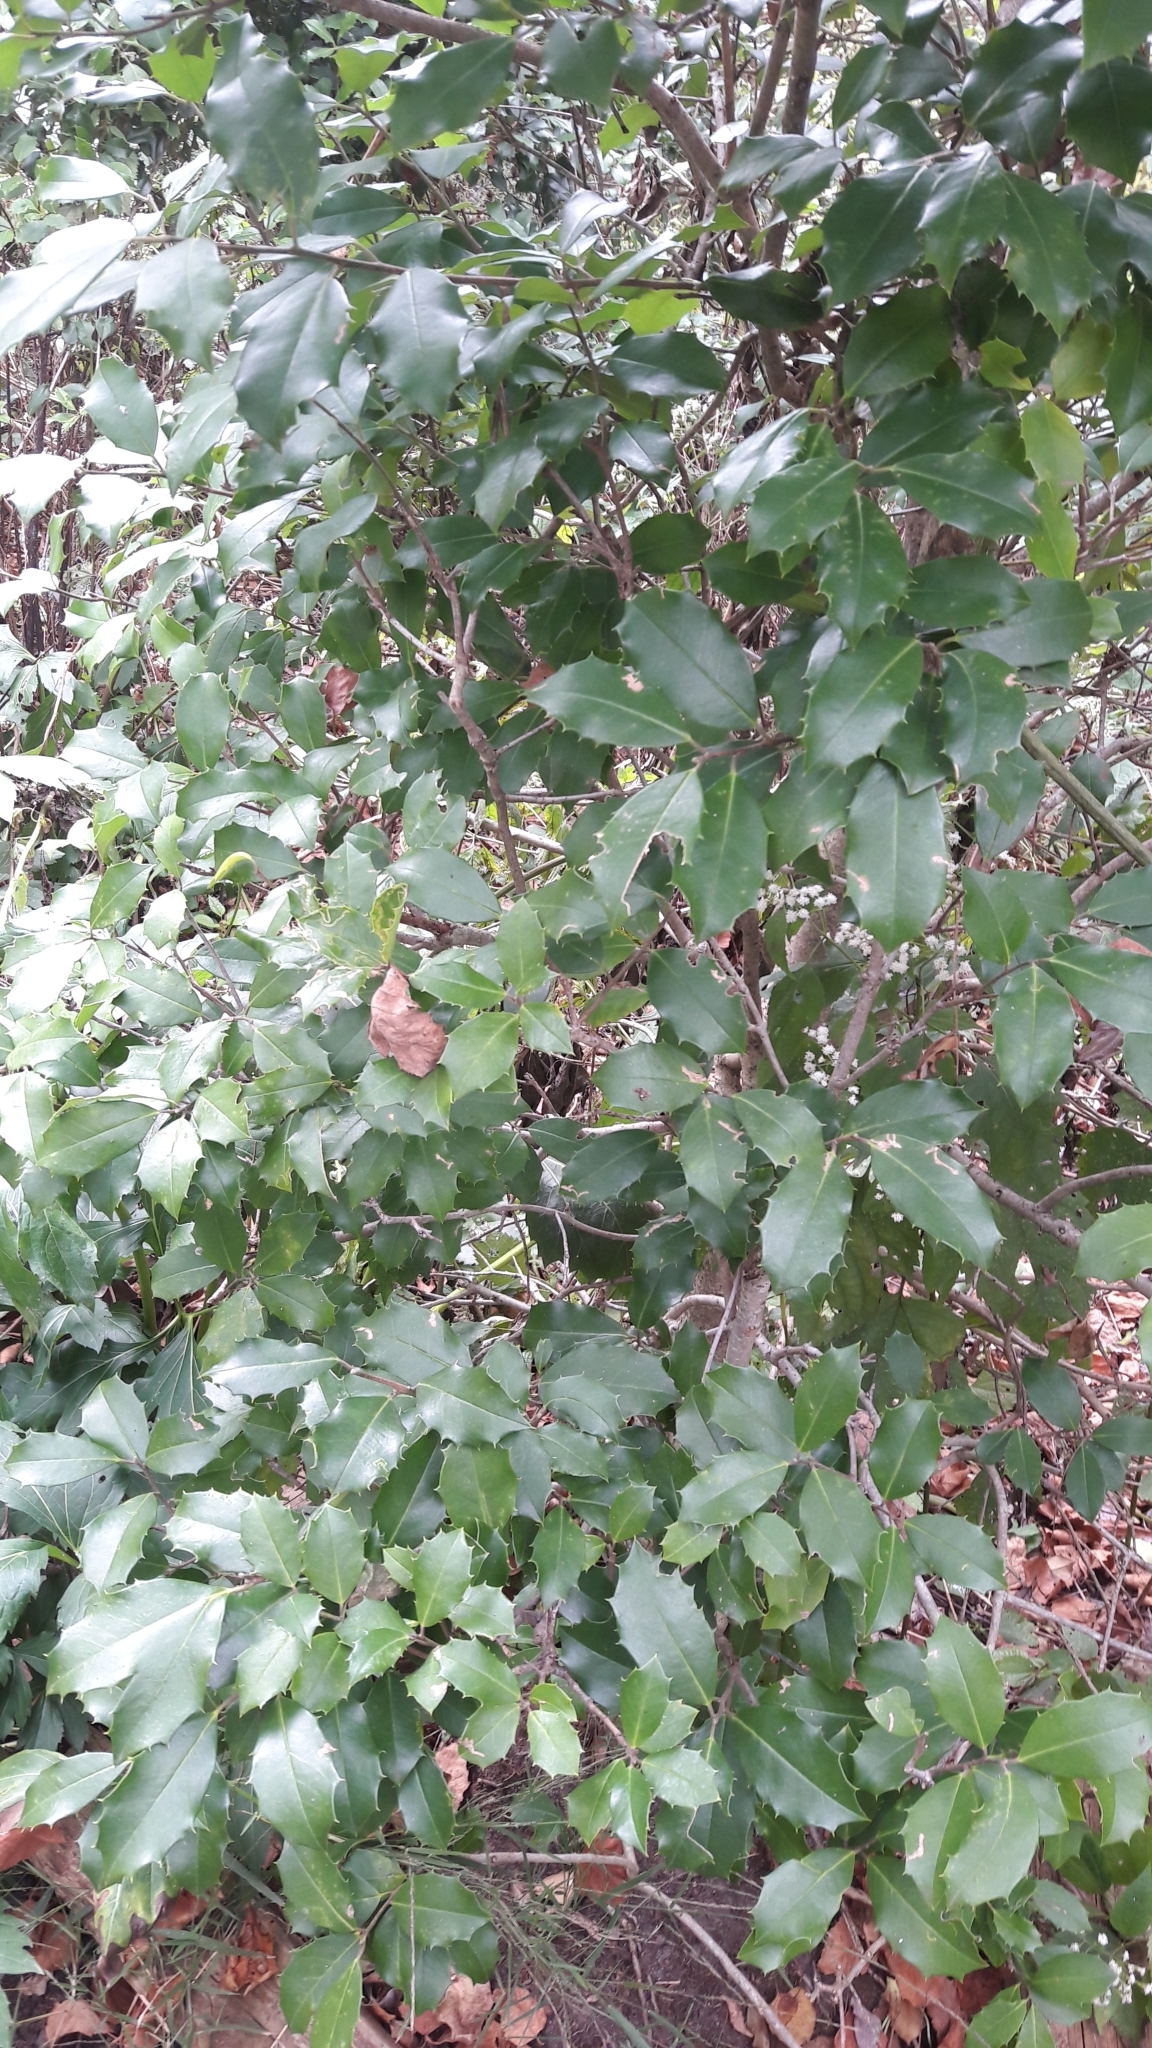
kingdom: Plantae
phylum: Tracheophyta
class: Magnoliopsida
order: Aquifoliales
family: Aquifoliaceae
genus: Ilex
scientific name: Ilex opaca
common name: American holly
